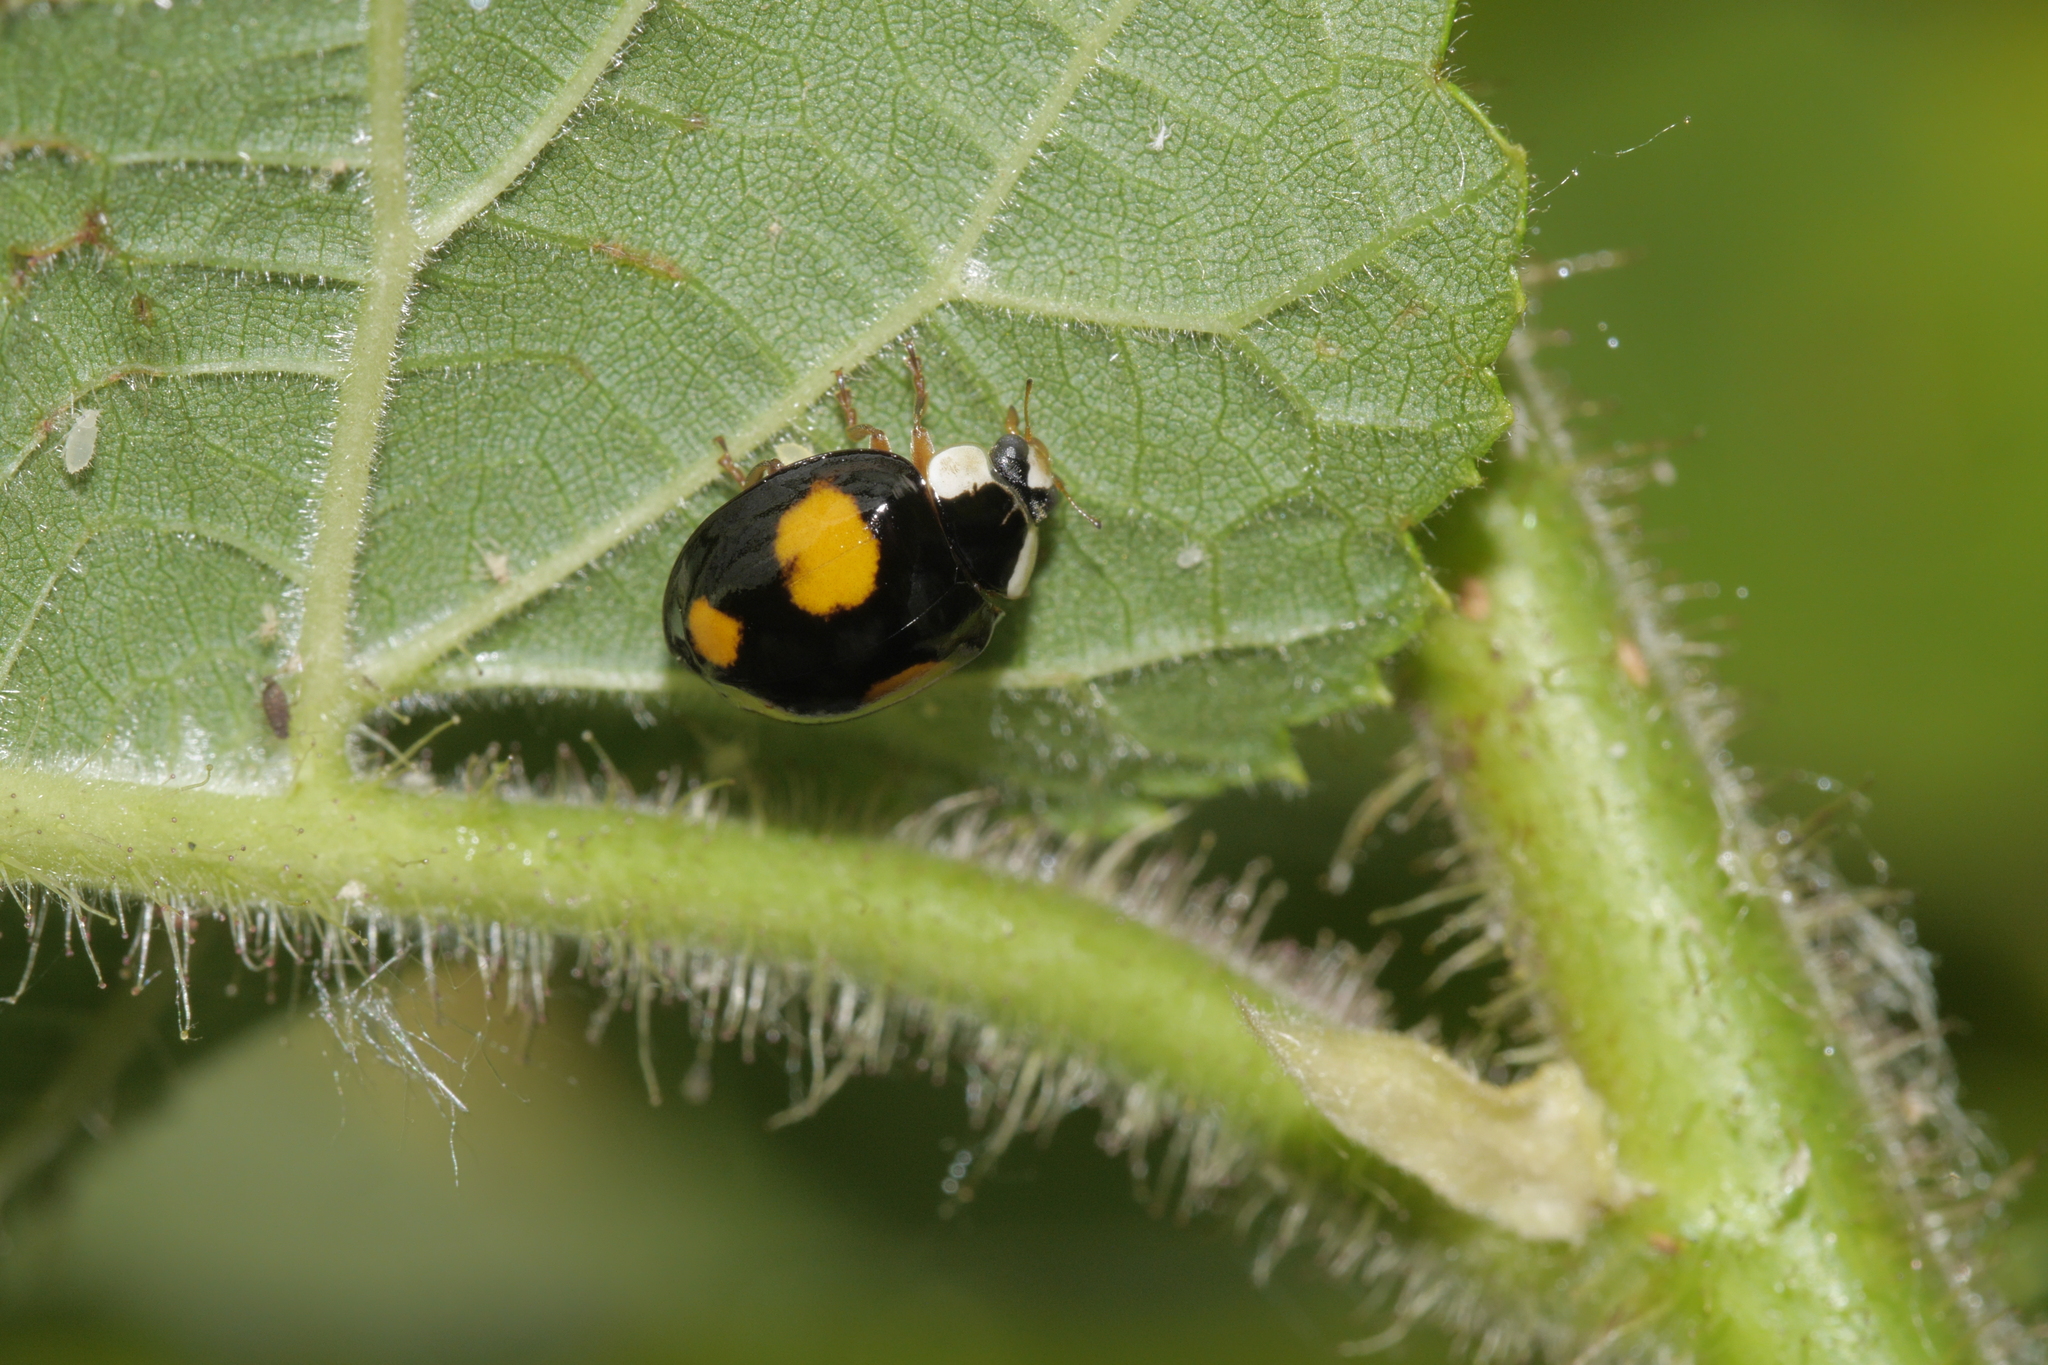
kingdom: Animalia
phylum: Arthropoda
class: Insecta
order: Coleoptera
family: Coccinellidae
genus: Harmonia
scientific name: Harmonia axyridis
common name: Harlequin ladybird
